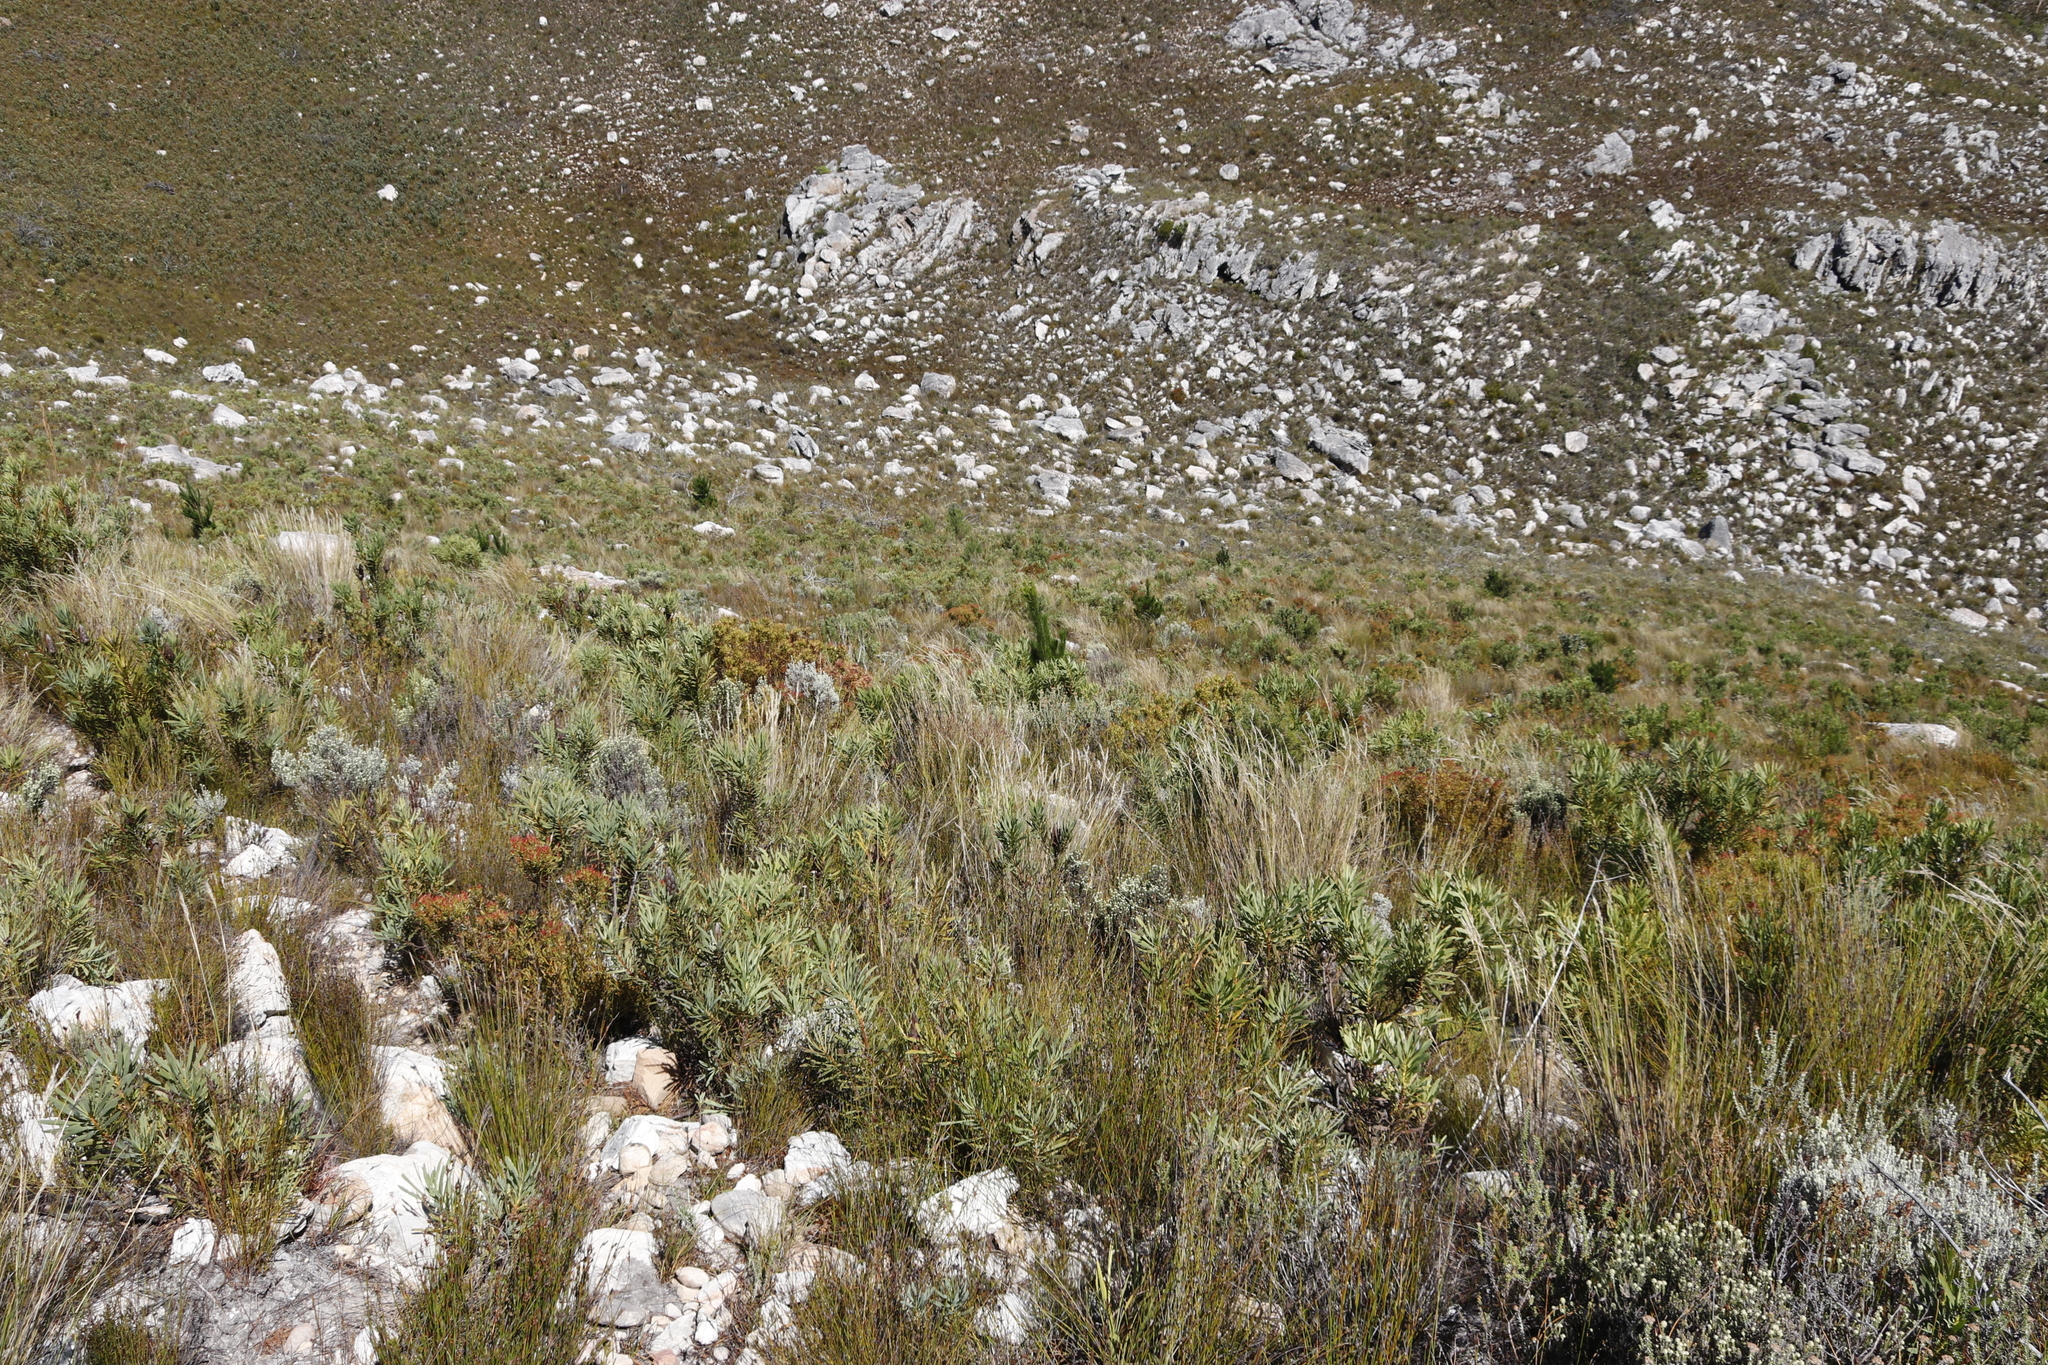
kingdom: Plantae
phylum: Tracheophyta
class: Magnoliopsida
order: Proteales
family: Proteaceae
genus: Protea
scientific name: Protea repens
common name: Sugarbush
